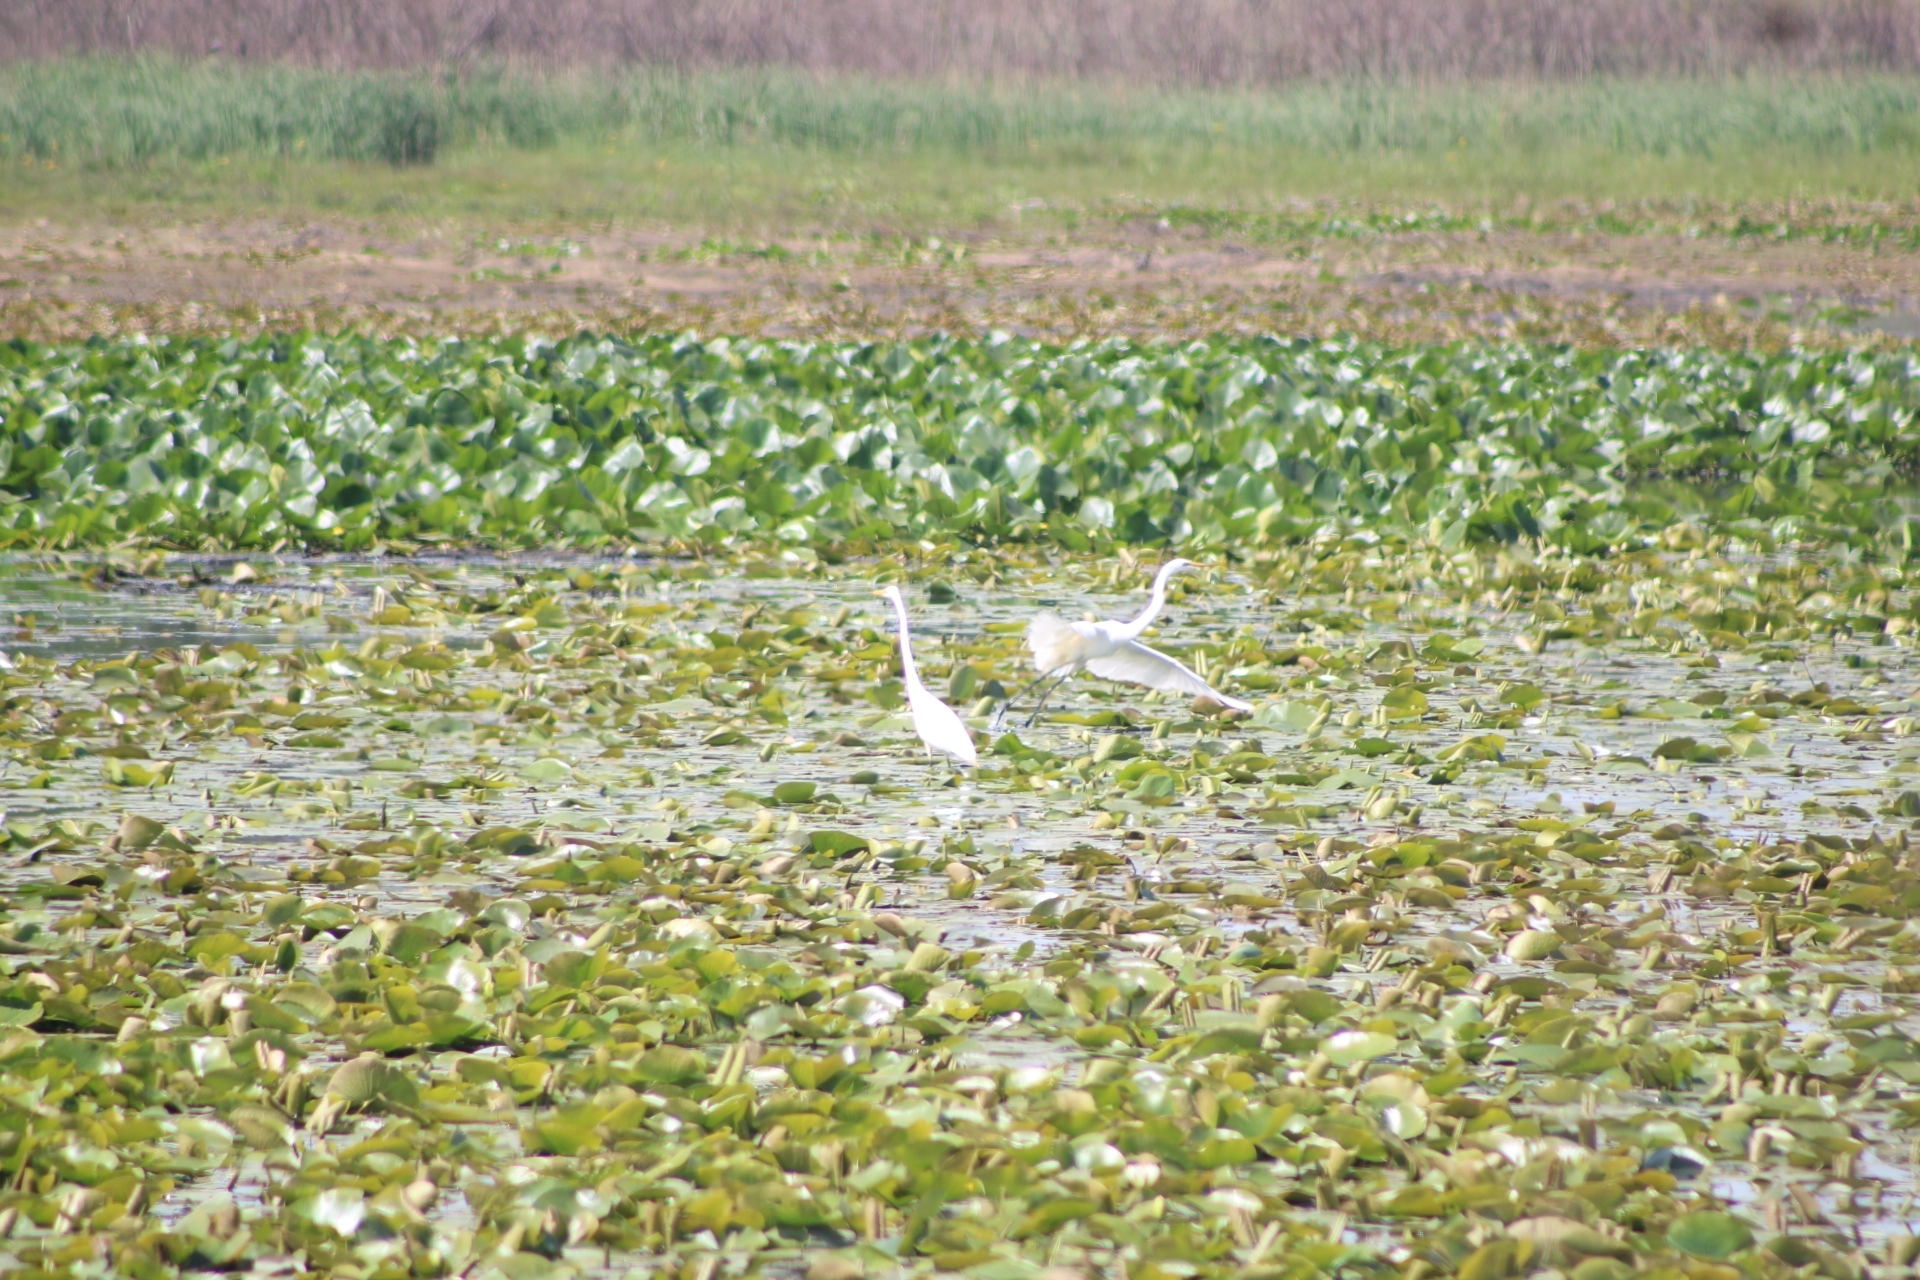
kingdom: Animalia
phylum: Chordata
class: Aves
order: Pelecaniformes
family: Ardeidae
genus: Ardea
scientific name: Ardea alba
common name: Great egret
